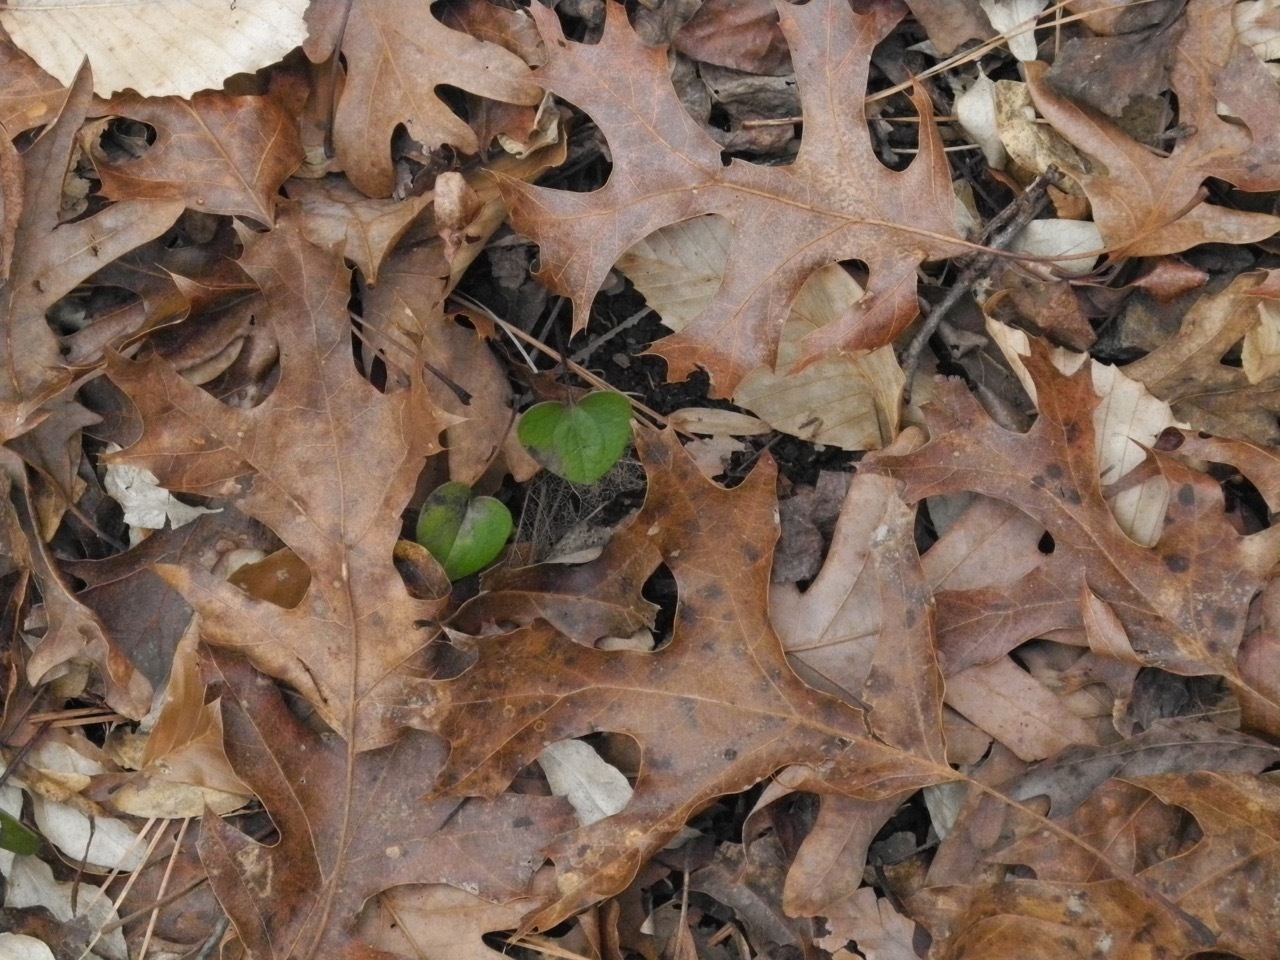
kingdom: Plantae
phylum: Tracheophyta
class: Magnoliopsida
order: Fagales
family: Fagaceae
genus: Quercus
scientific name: Quercus coccinea
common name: Scarlet oak
